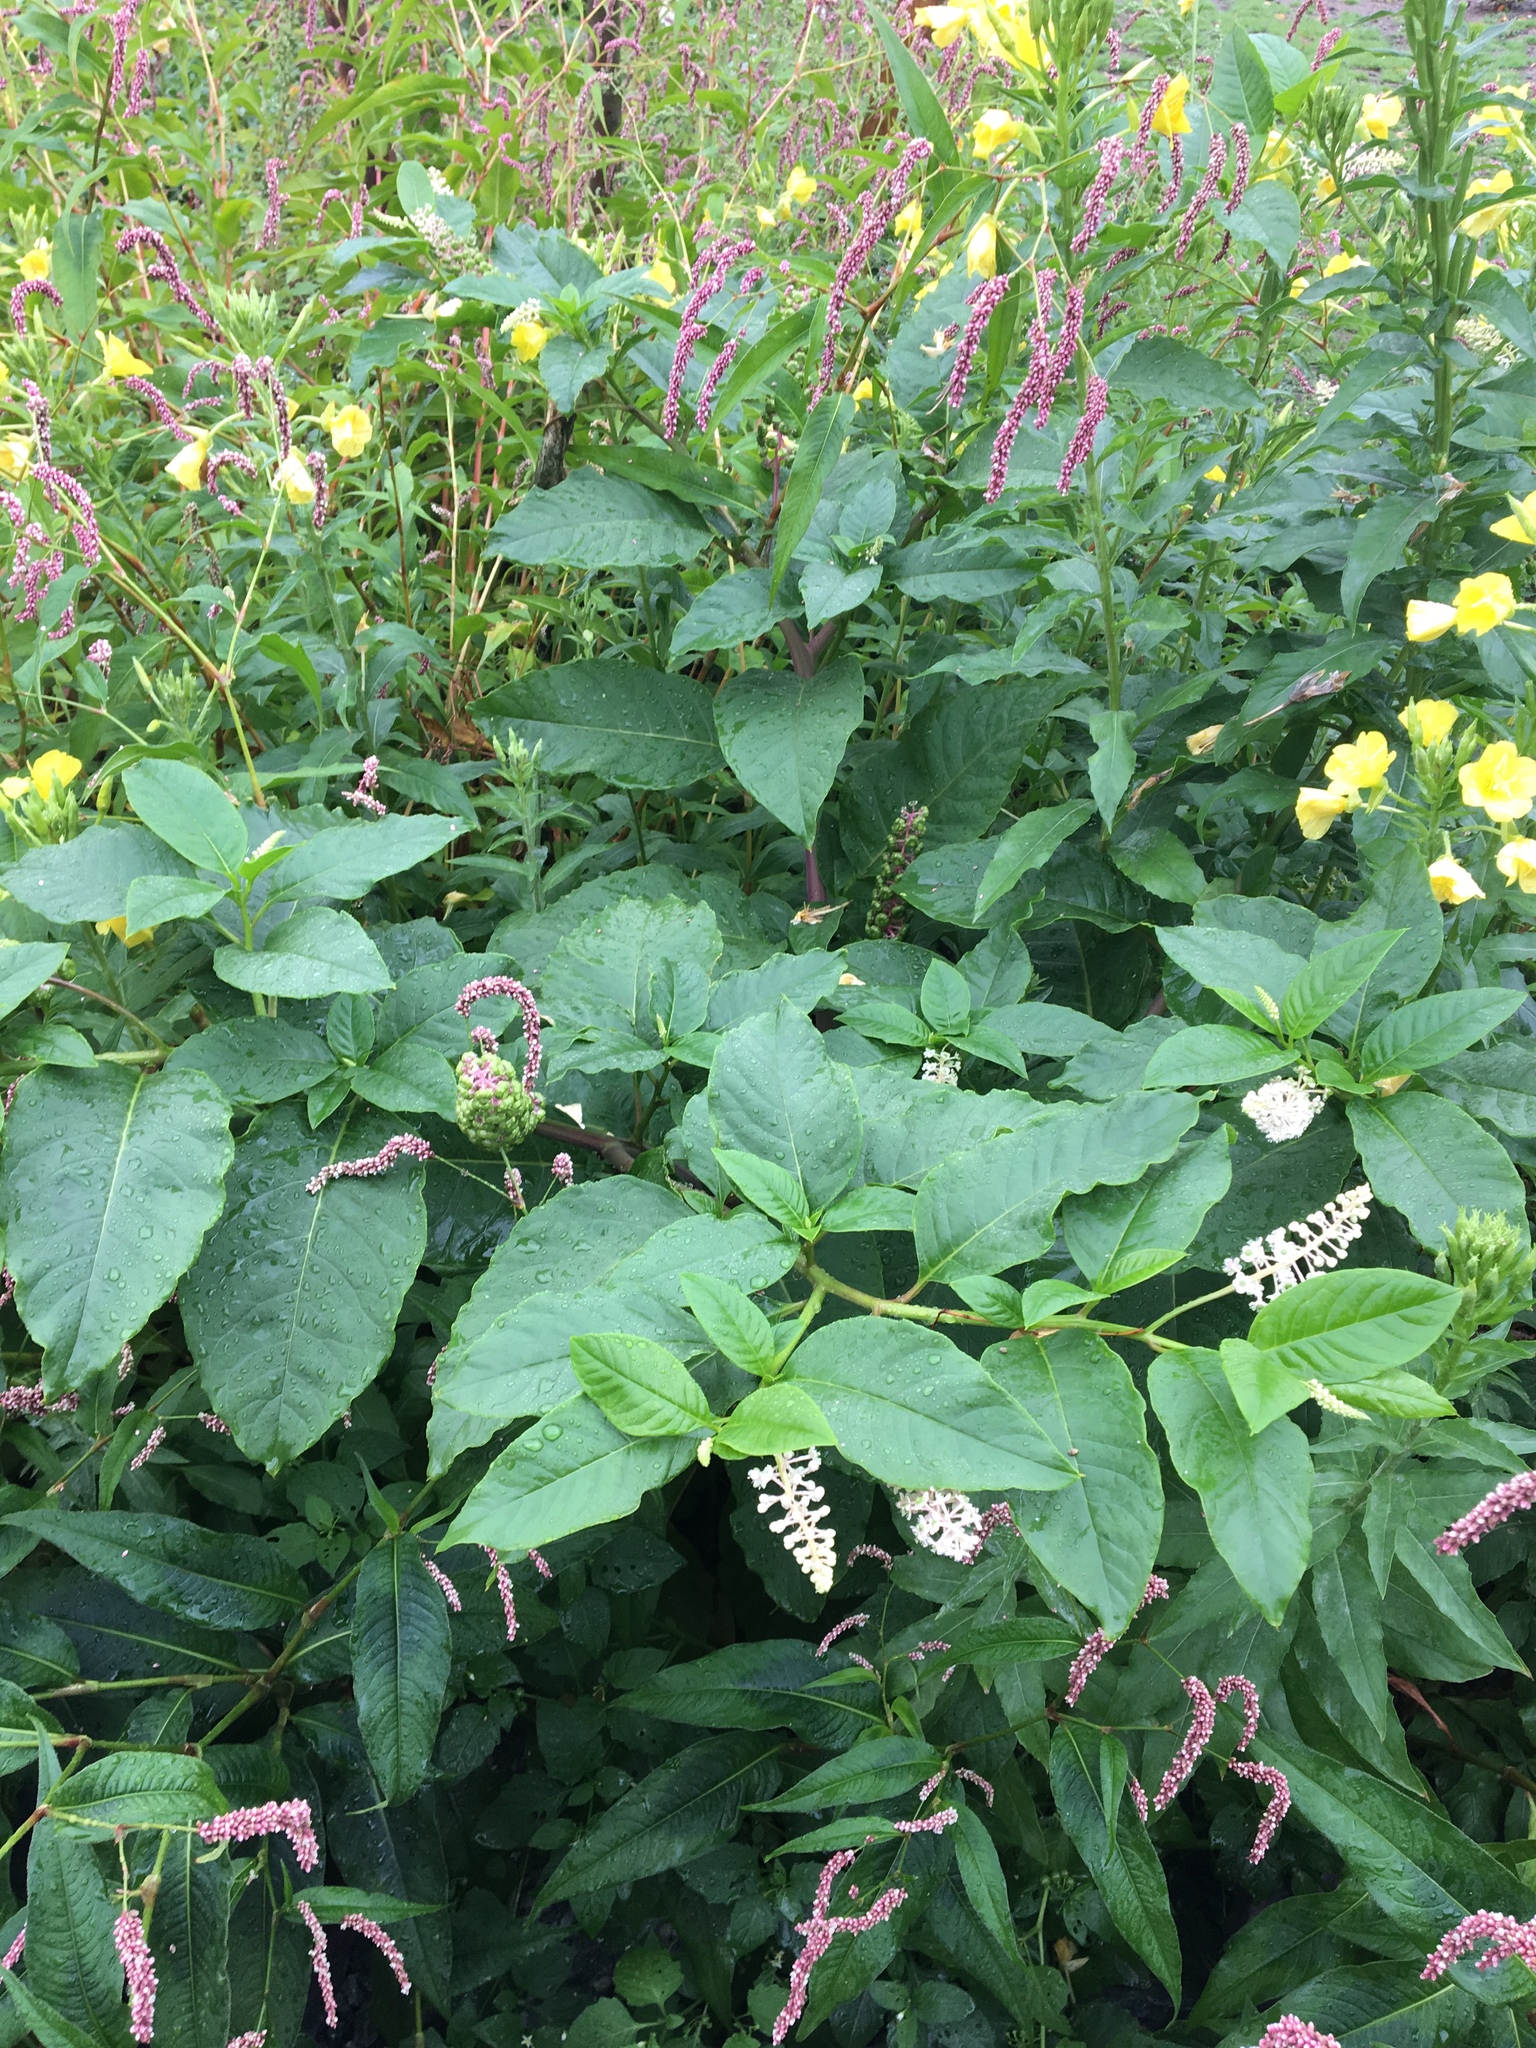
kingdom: Plantae
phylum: Tracheophyta
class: Magnoliopsida
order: Caryophyllales
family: Phytolaccaceae
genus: Phytolacca
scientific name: Phytolacca americana
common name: American pokeweed
